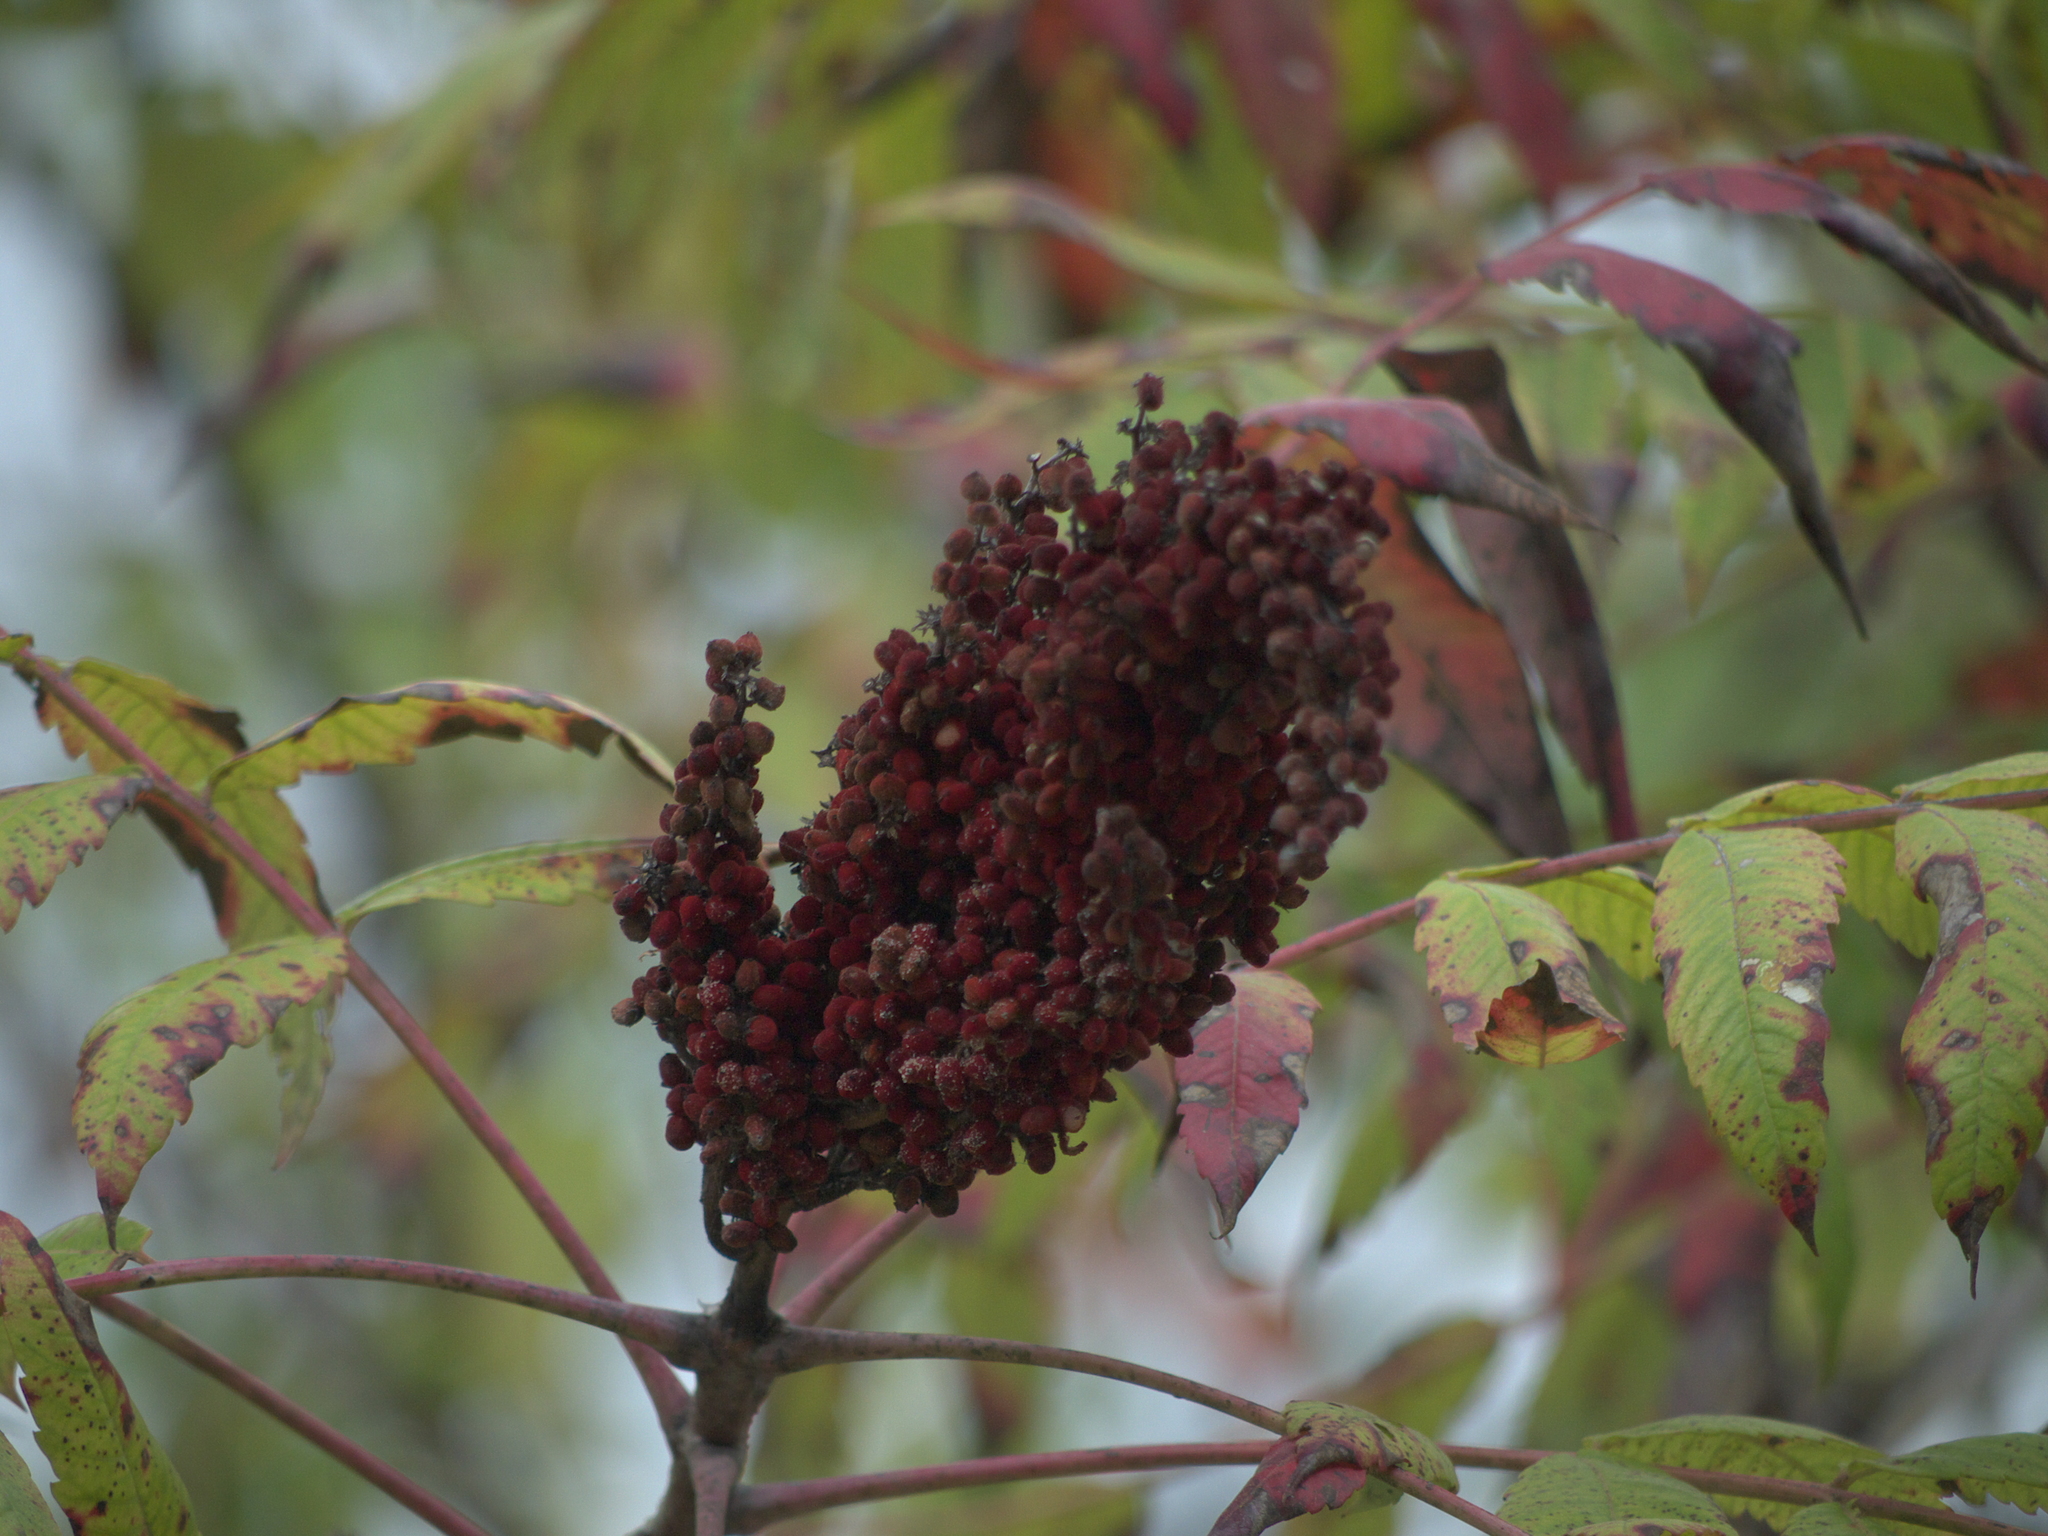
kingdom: Plantae
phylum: Tracheophyta
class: Magnoliopsida
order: Sapindales
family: Anacardiaceae
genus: Rhus
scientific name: Rhus glabra
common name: Scarlet sumac
